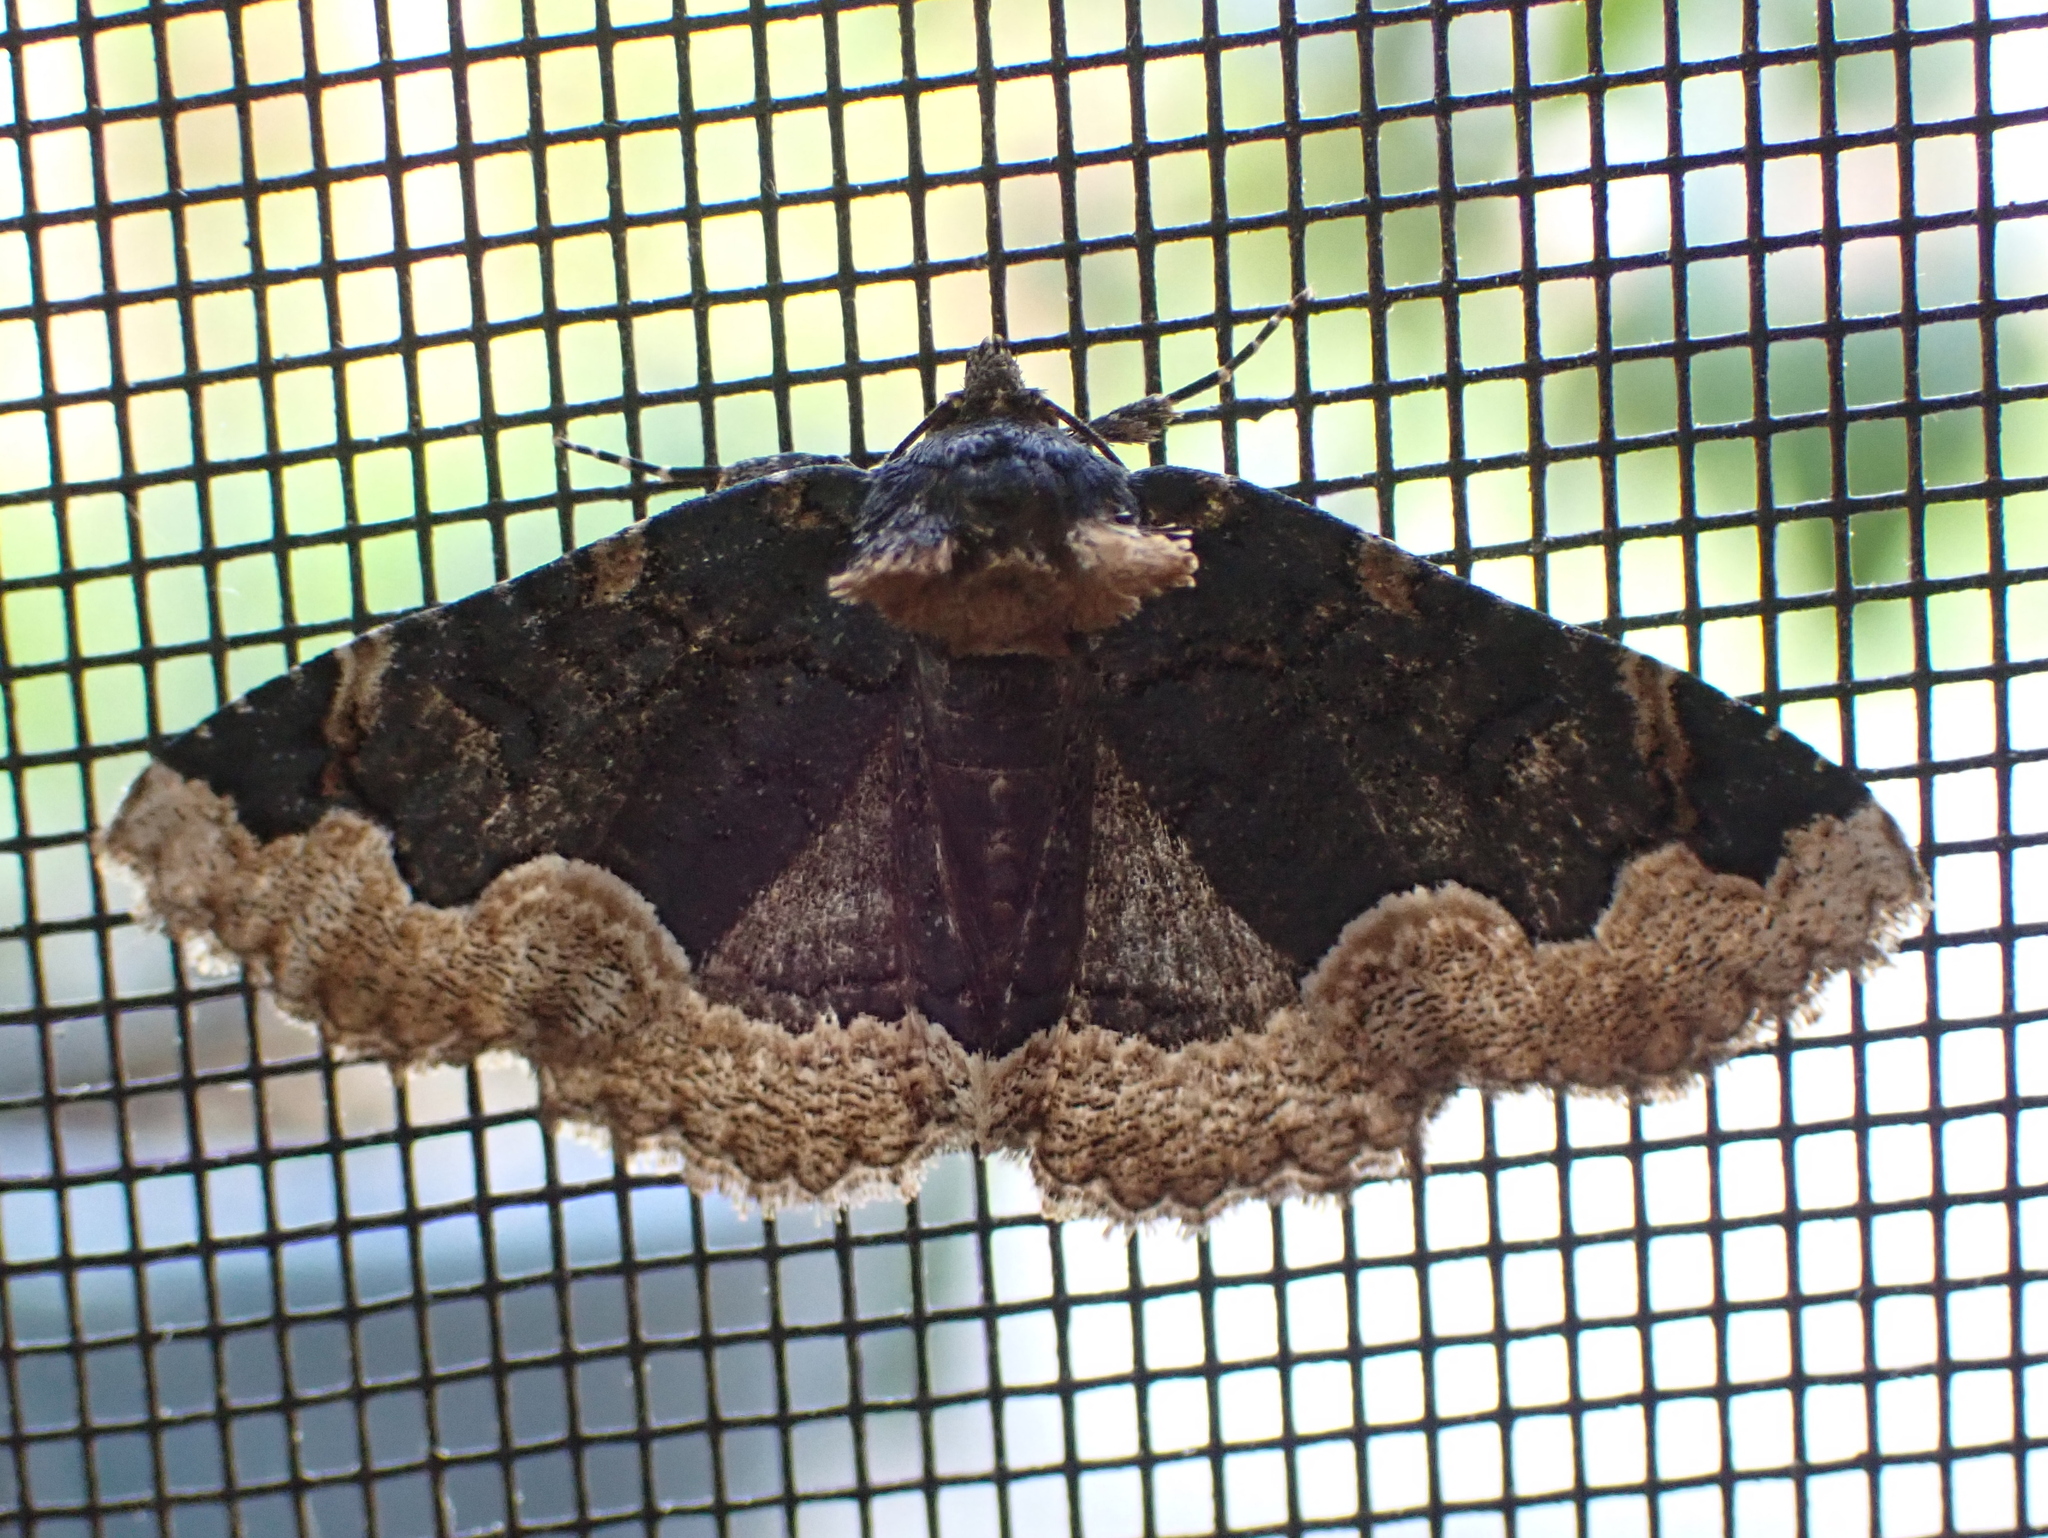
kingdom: Animalia
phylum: Arthropoda
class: Insecta
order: Lepidoptera
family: Erebidae
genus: Zale
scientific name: Zale horrida
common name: Horrid zale moth
